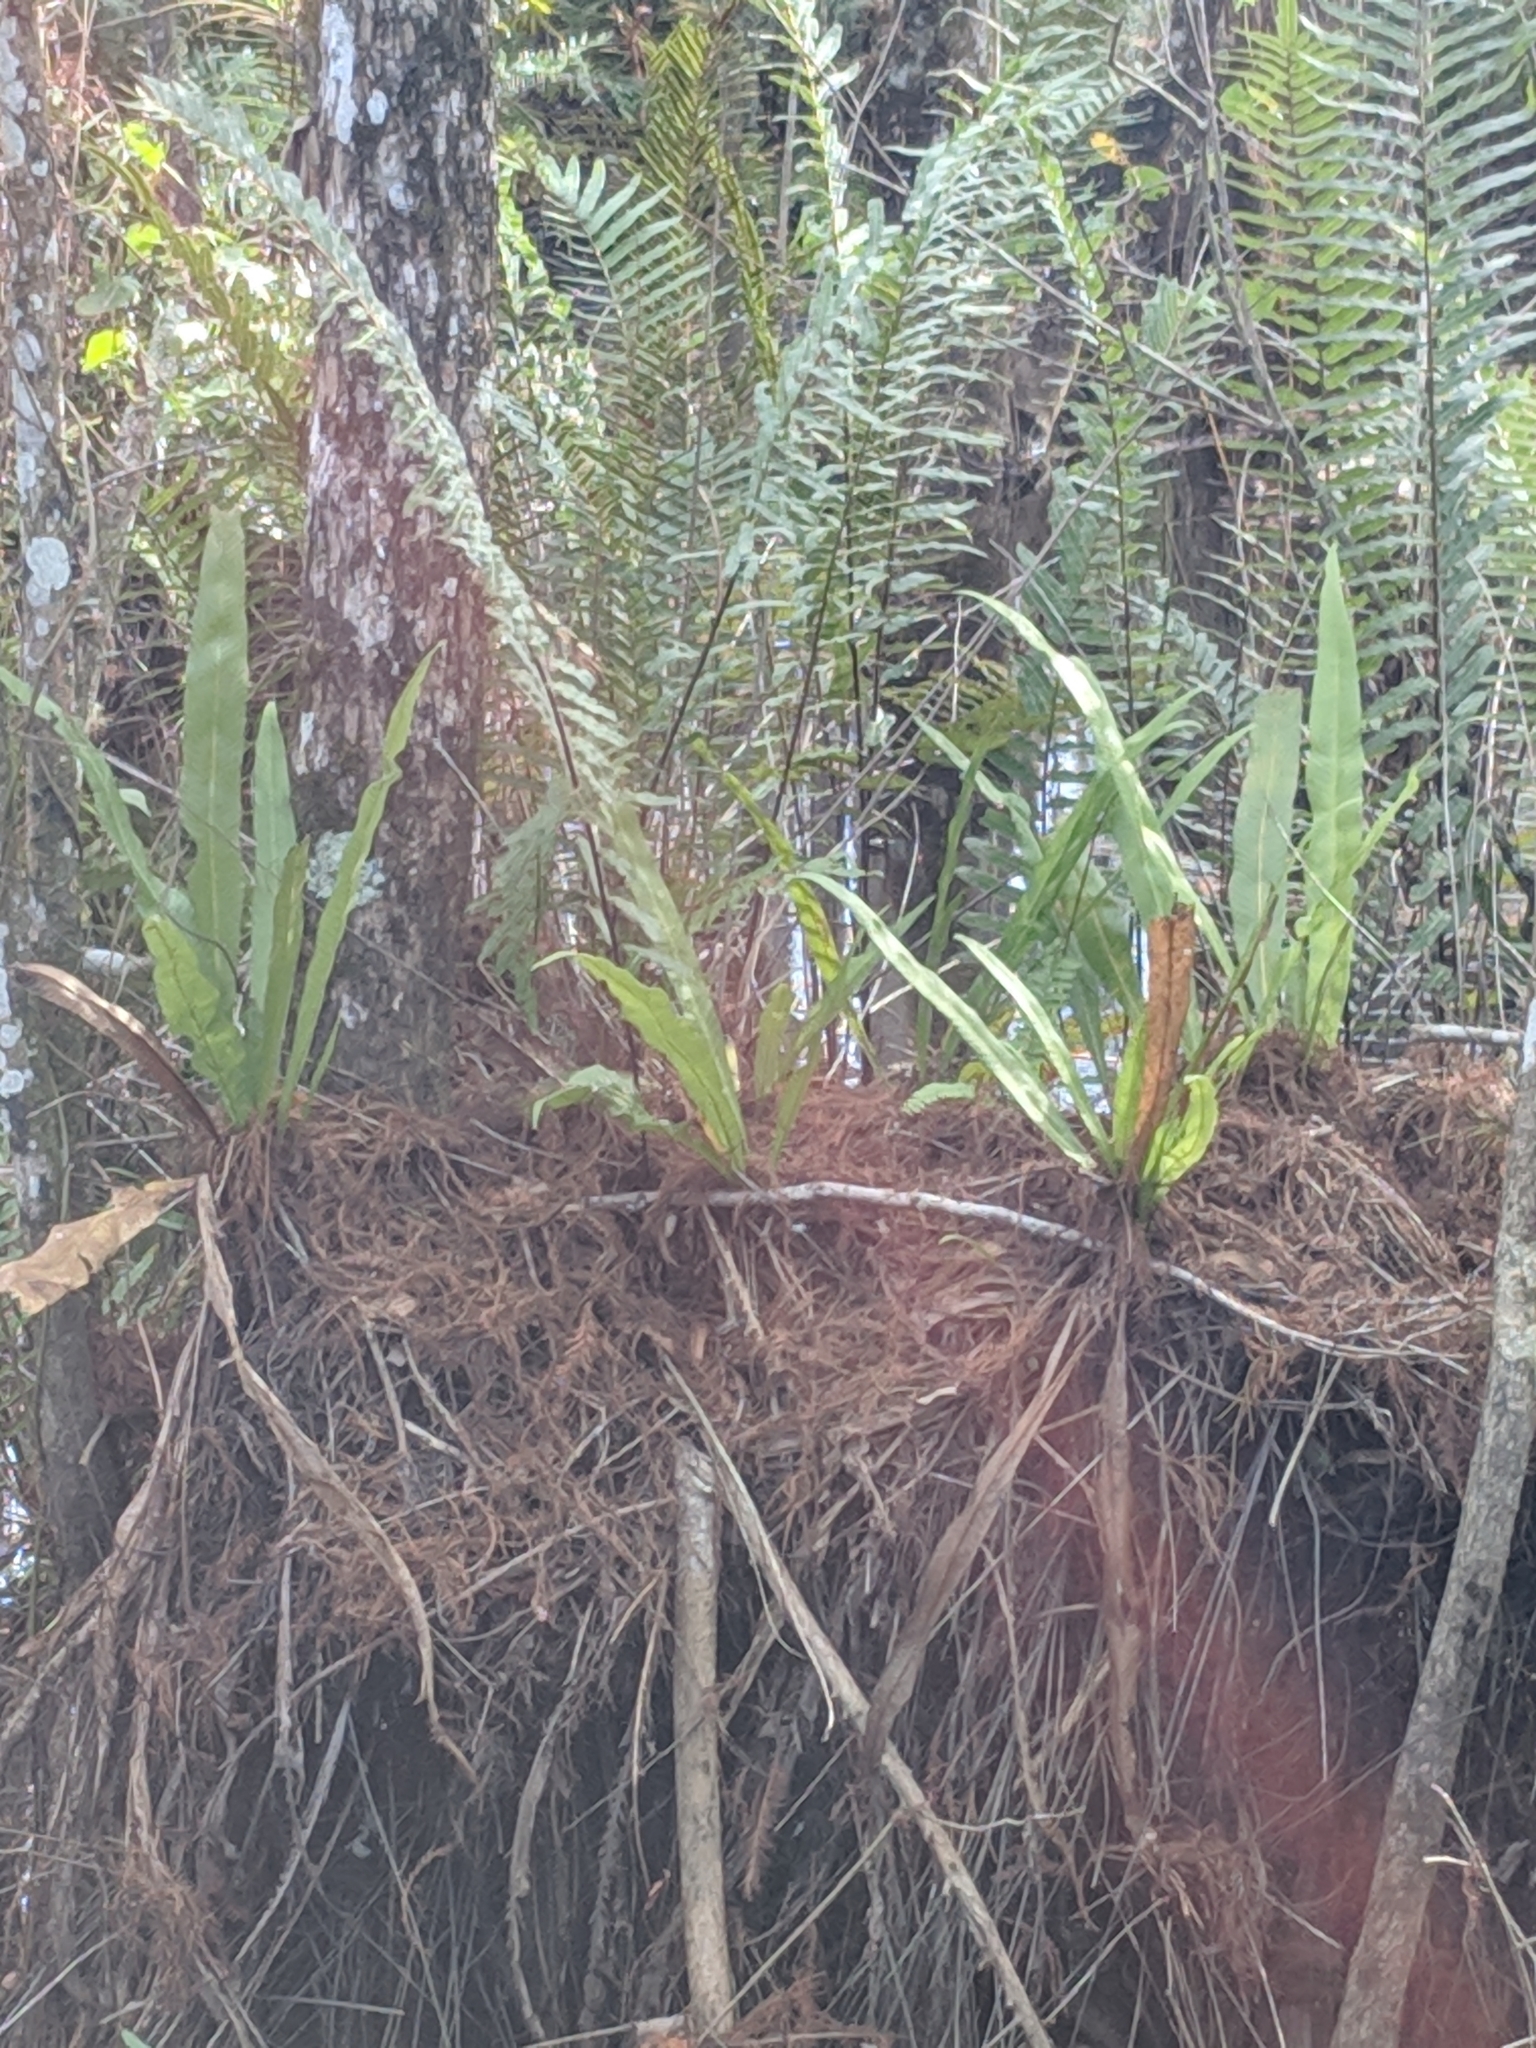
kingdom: Plantae
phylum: Tracheophyta
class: Polypodiopsida
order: Polypodiales
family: Polypodiaceae
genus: Campyloneurum
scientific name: Campyloneurum phyllitidis
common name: Cow-tongue fern
